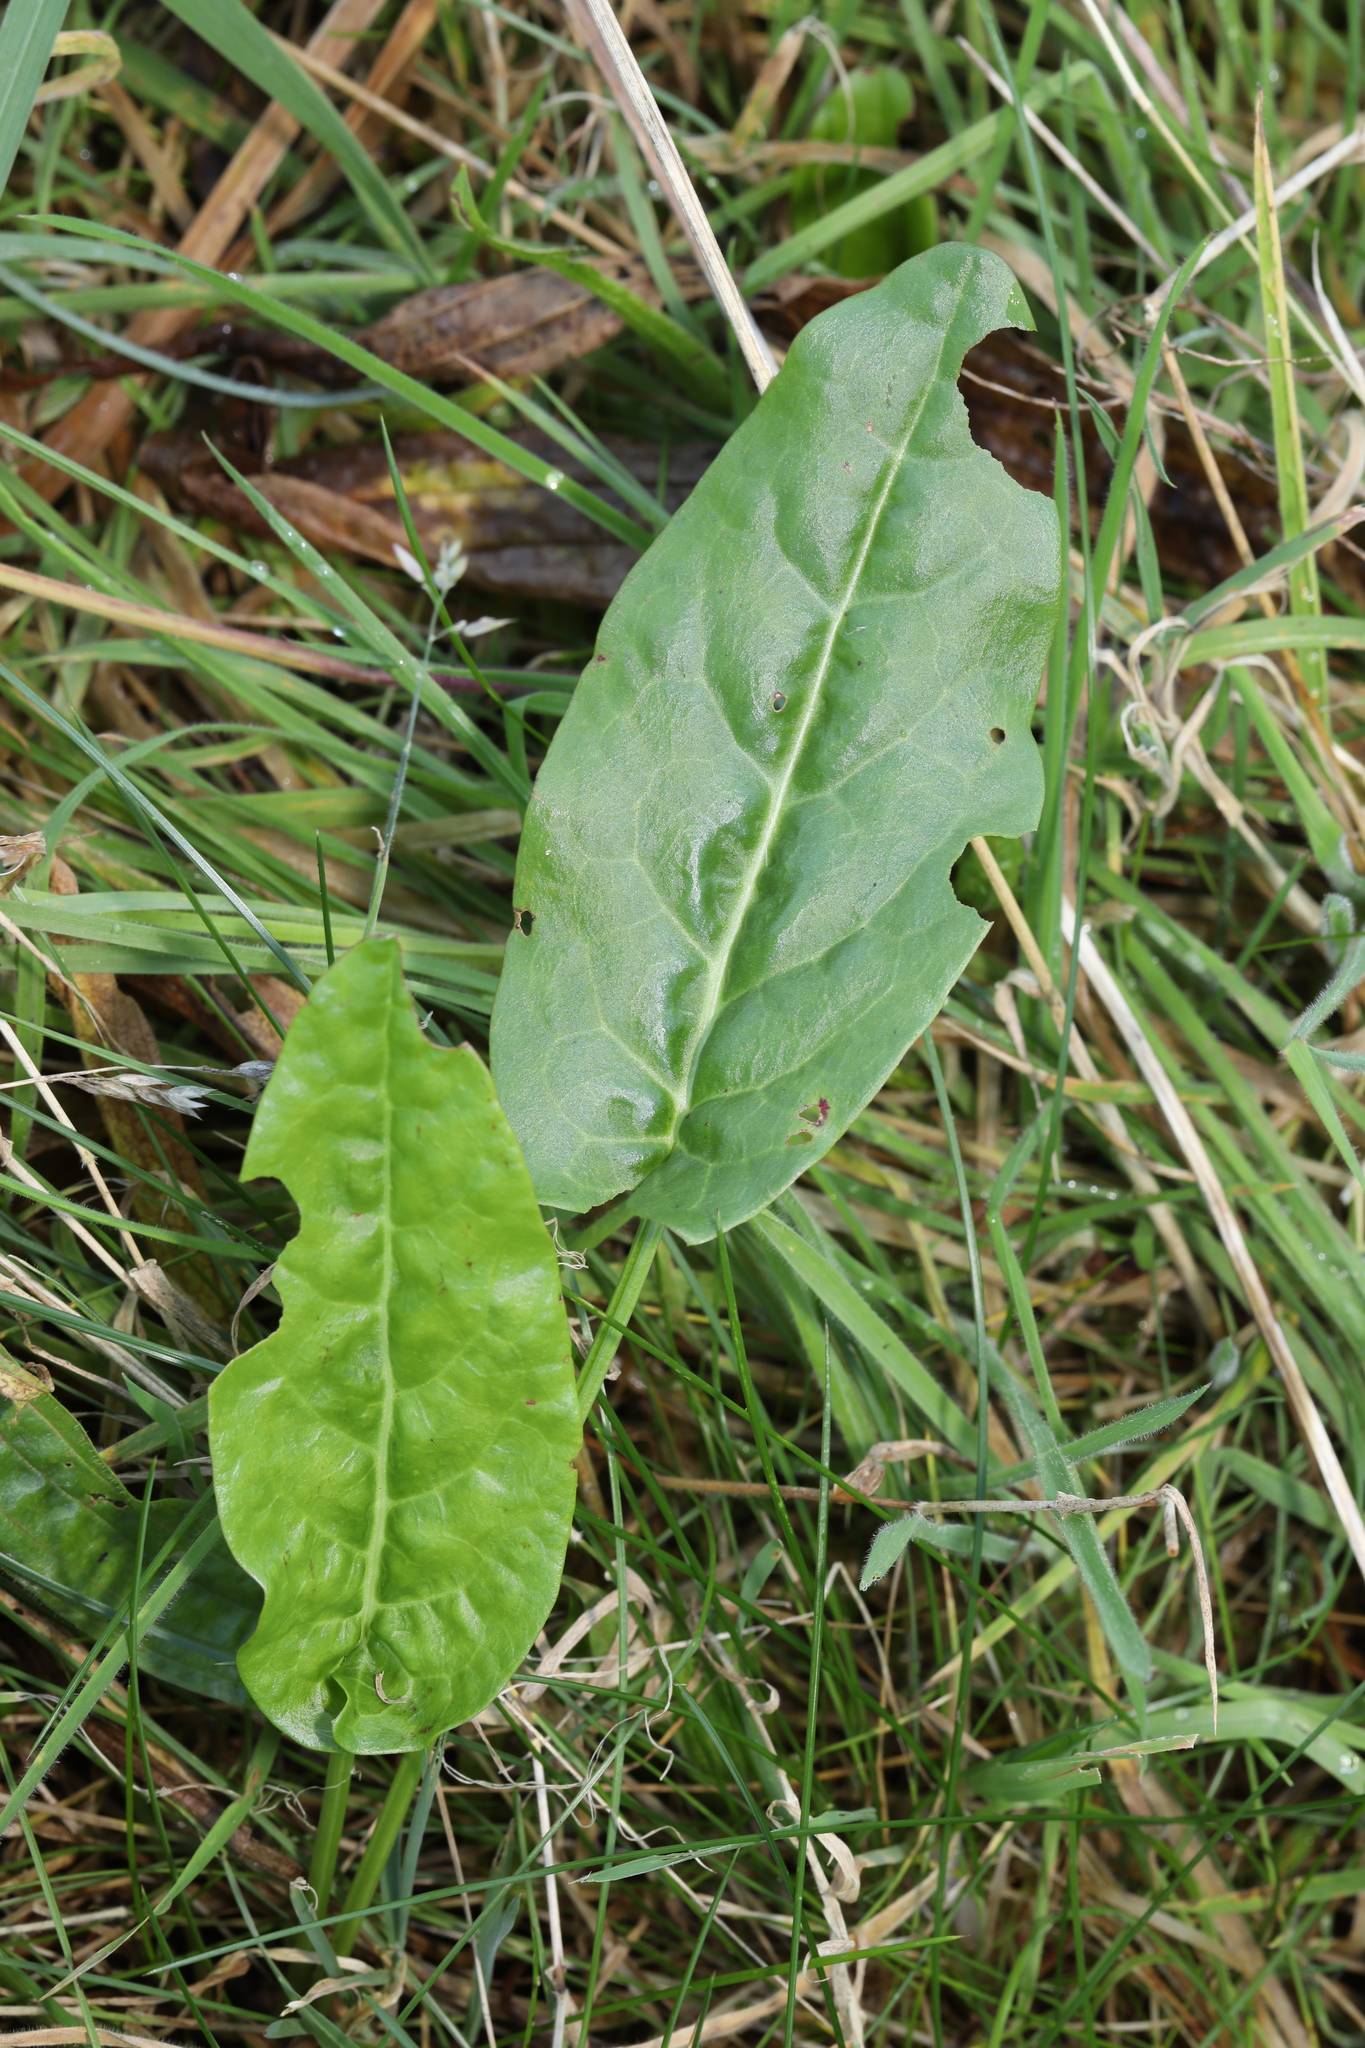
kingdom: Plantae
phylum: Tracheophyta
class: Magnoliopsida
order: Caryophyllales
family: Polygonaceae
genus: Rumex
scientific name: Rumex acetosa
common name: Garden sorrel
